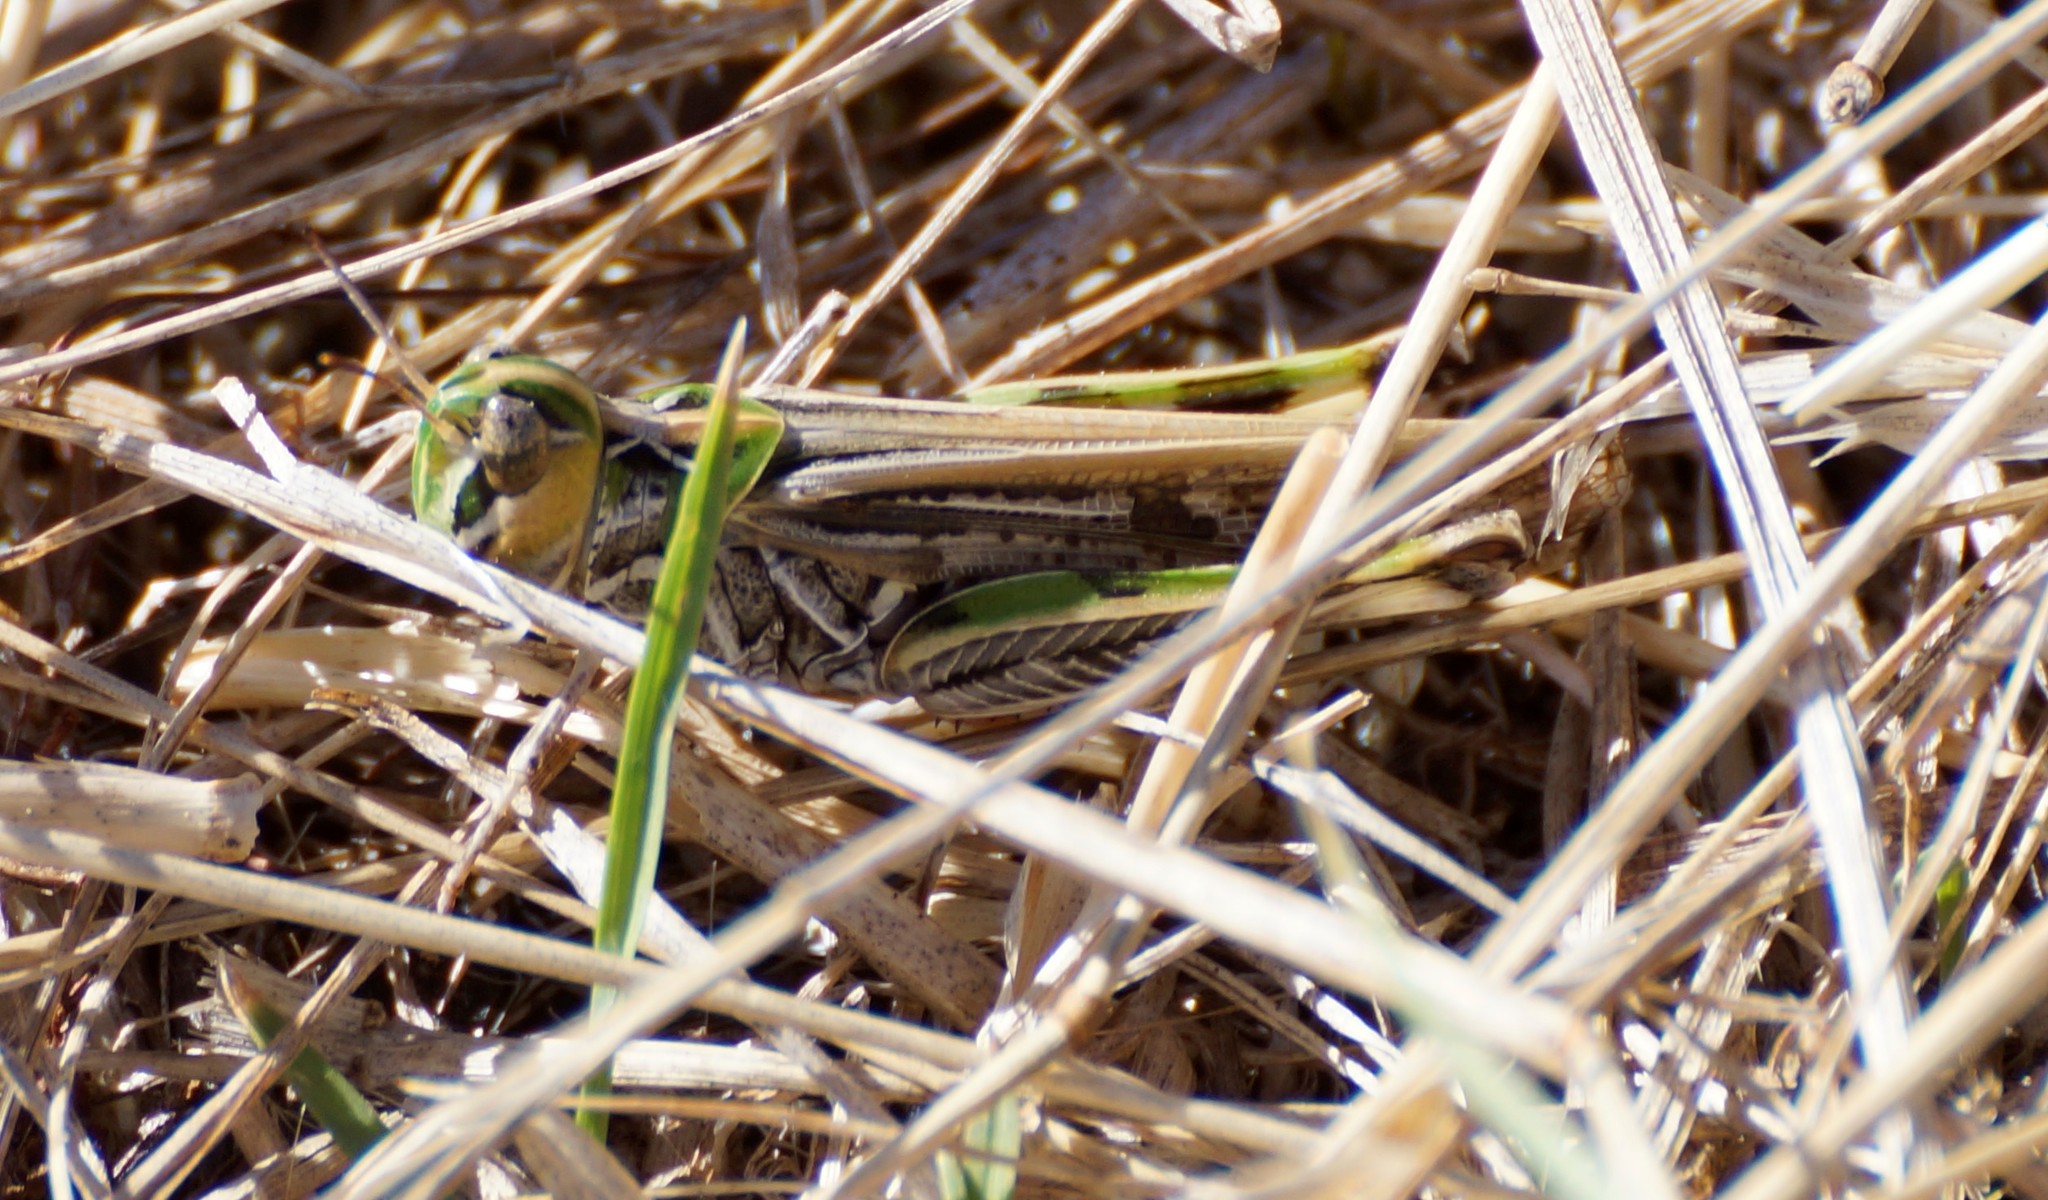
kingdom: Animalia
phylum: Arthropoda
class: Insecta
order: Orthoptera
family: Acrididae
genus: Austroicetes
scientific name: Austroicetes vulgaris
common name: Southeastern austroicetes
